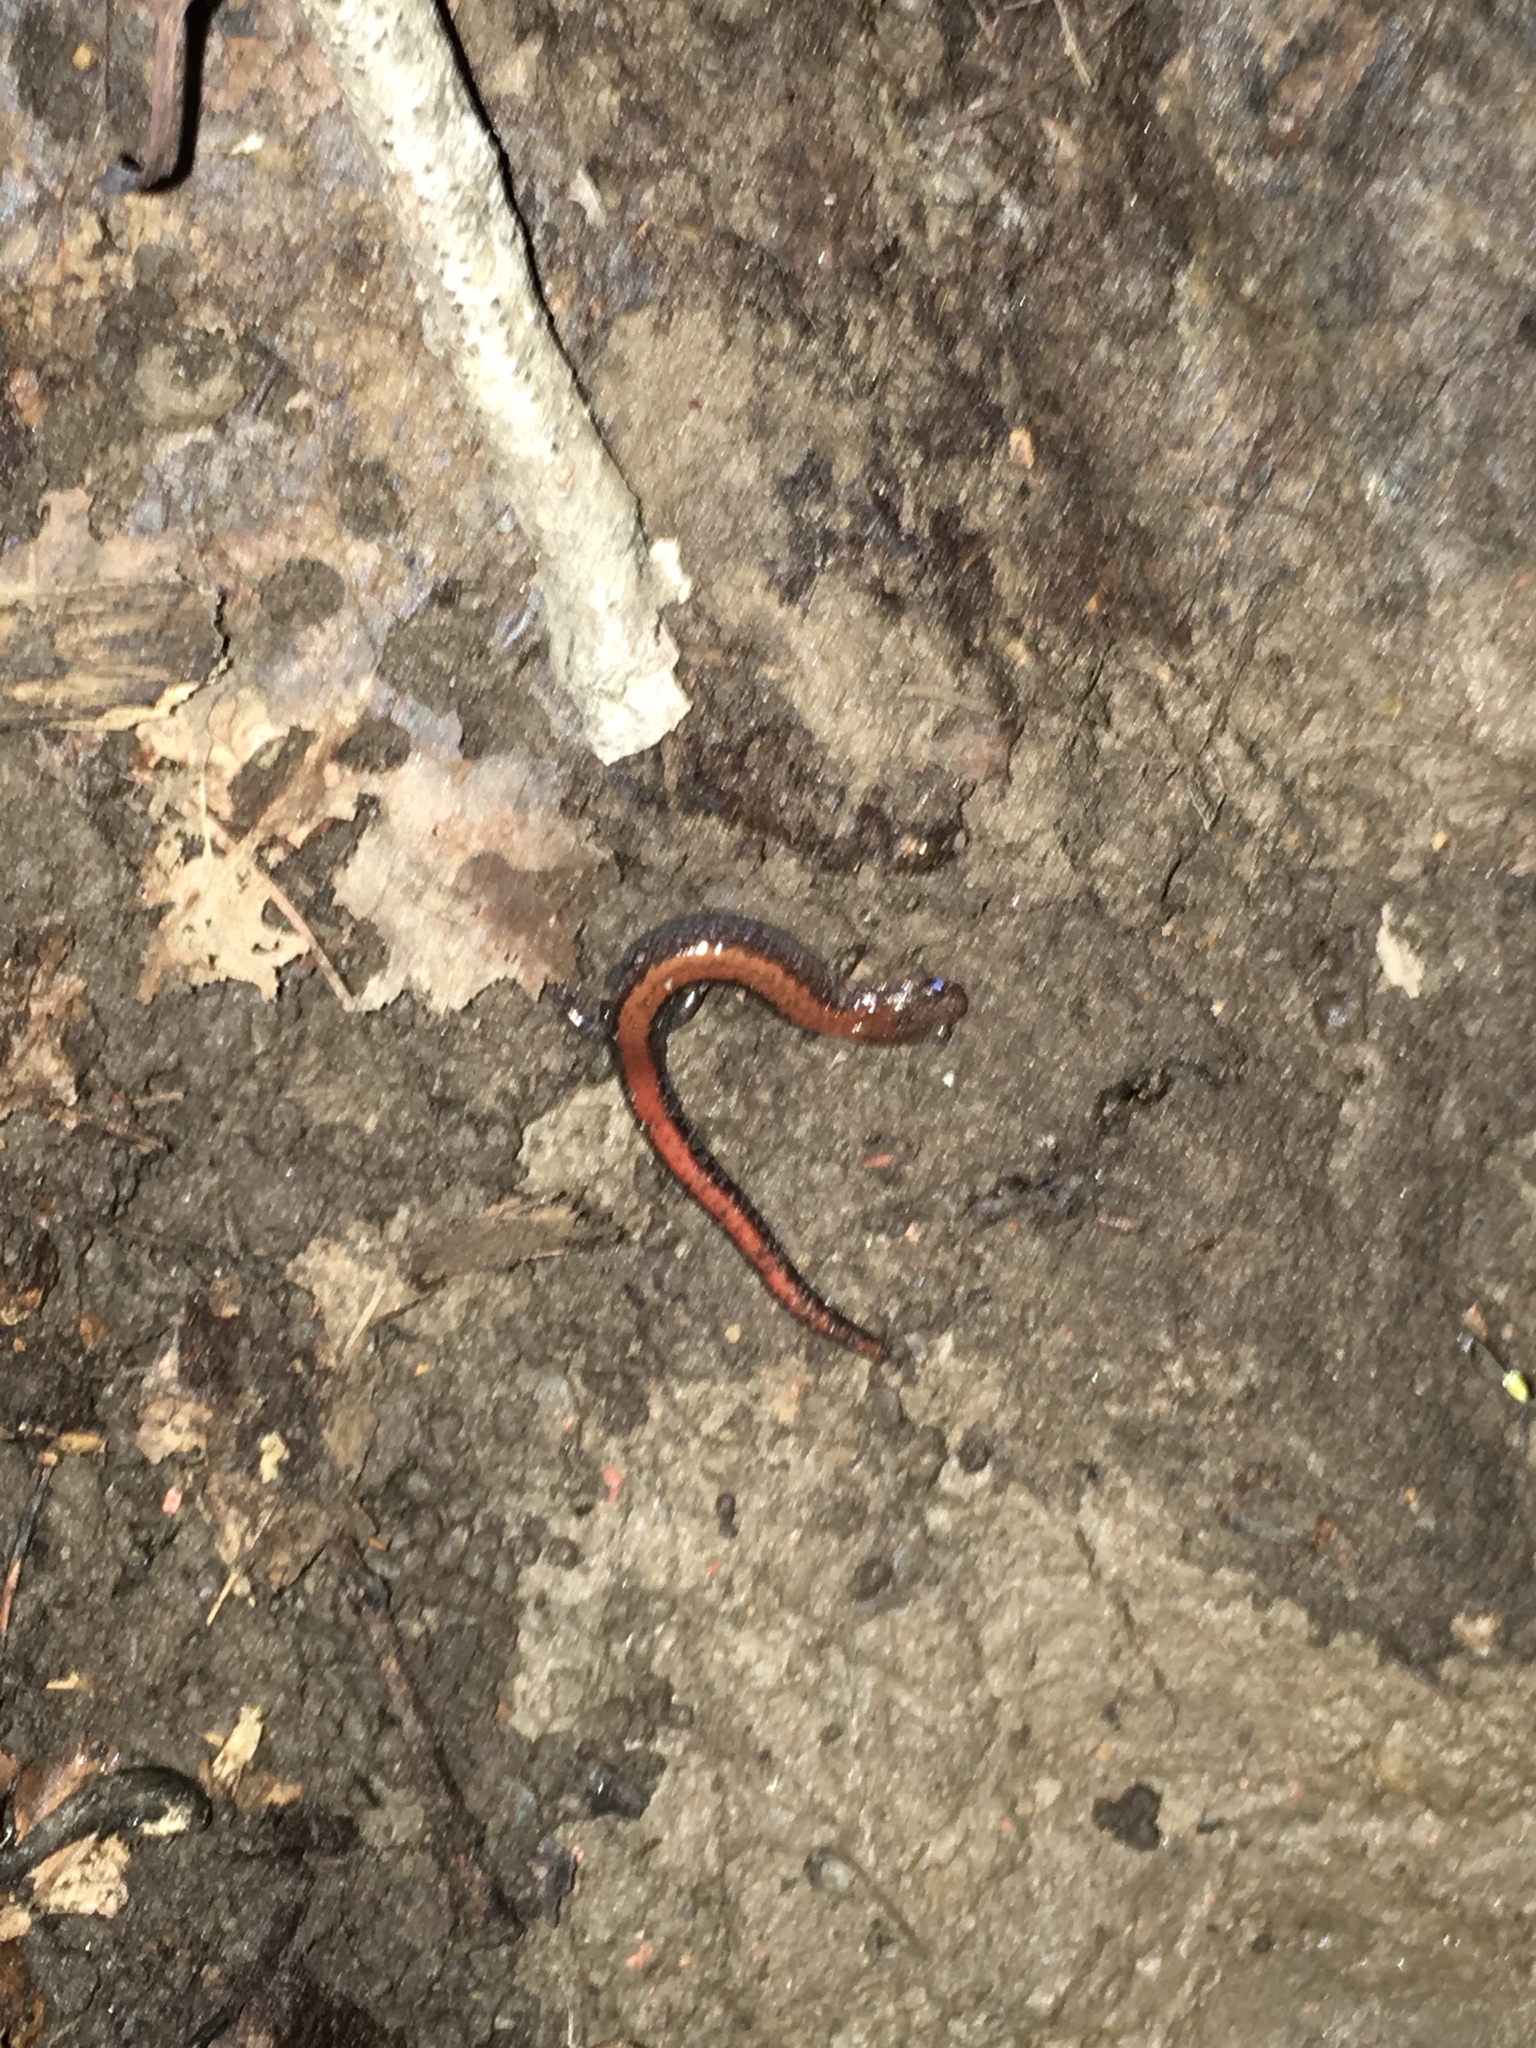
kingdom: Animalia
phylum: Chordata
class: Amphibia
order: Caudata
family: Plethodontidae
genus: Plethodon
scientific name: Plethodon cinereus
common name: Redback salamander
